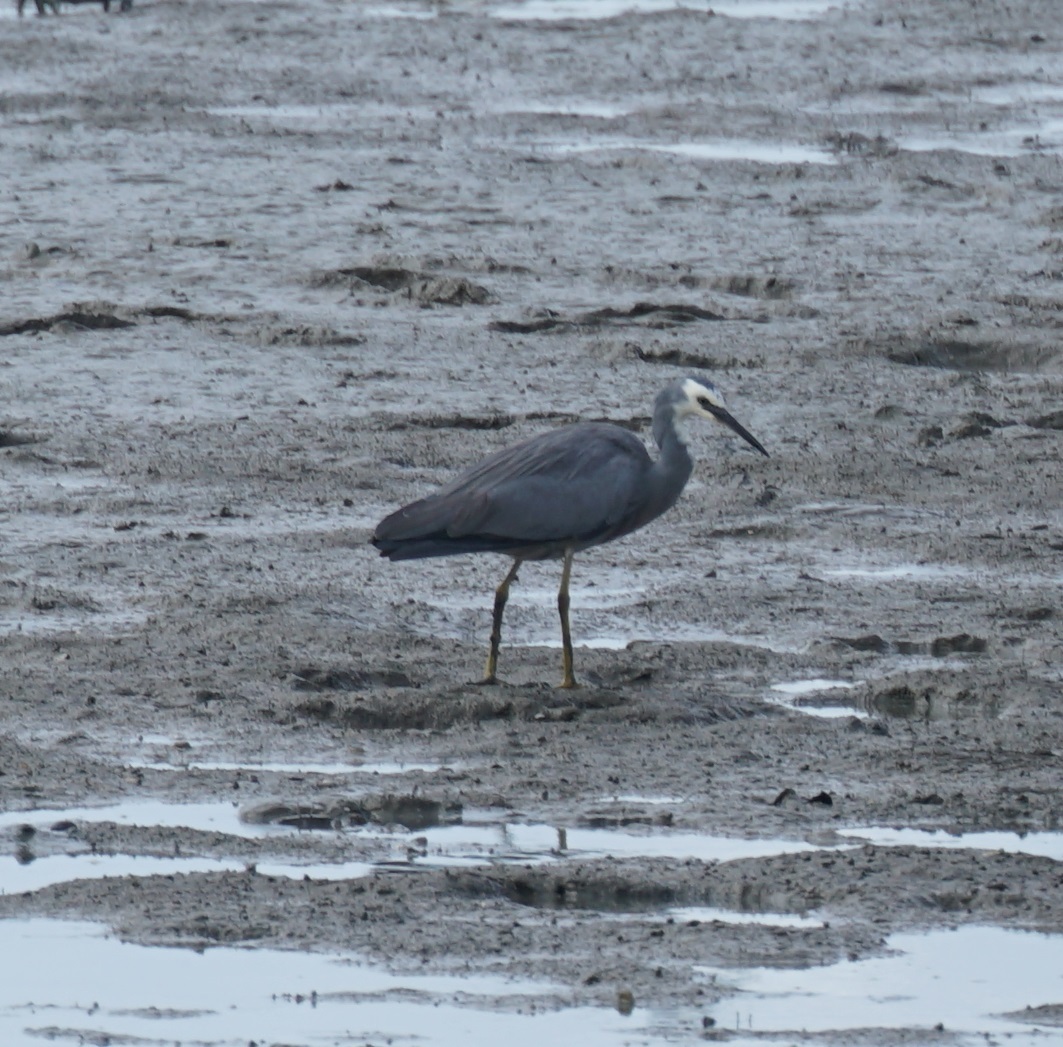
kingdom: Animalia
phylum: Chordata
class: Aves
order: Pelecaniformes
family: Ardeidae
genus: Egretta
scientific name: Egretta novaehollandiae
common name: White-faced heron
